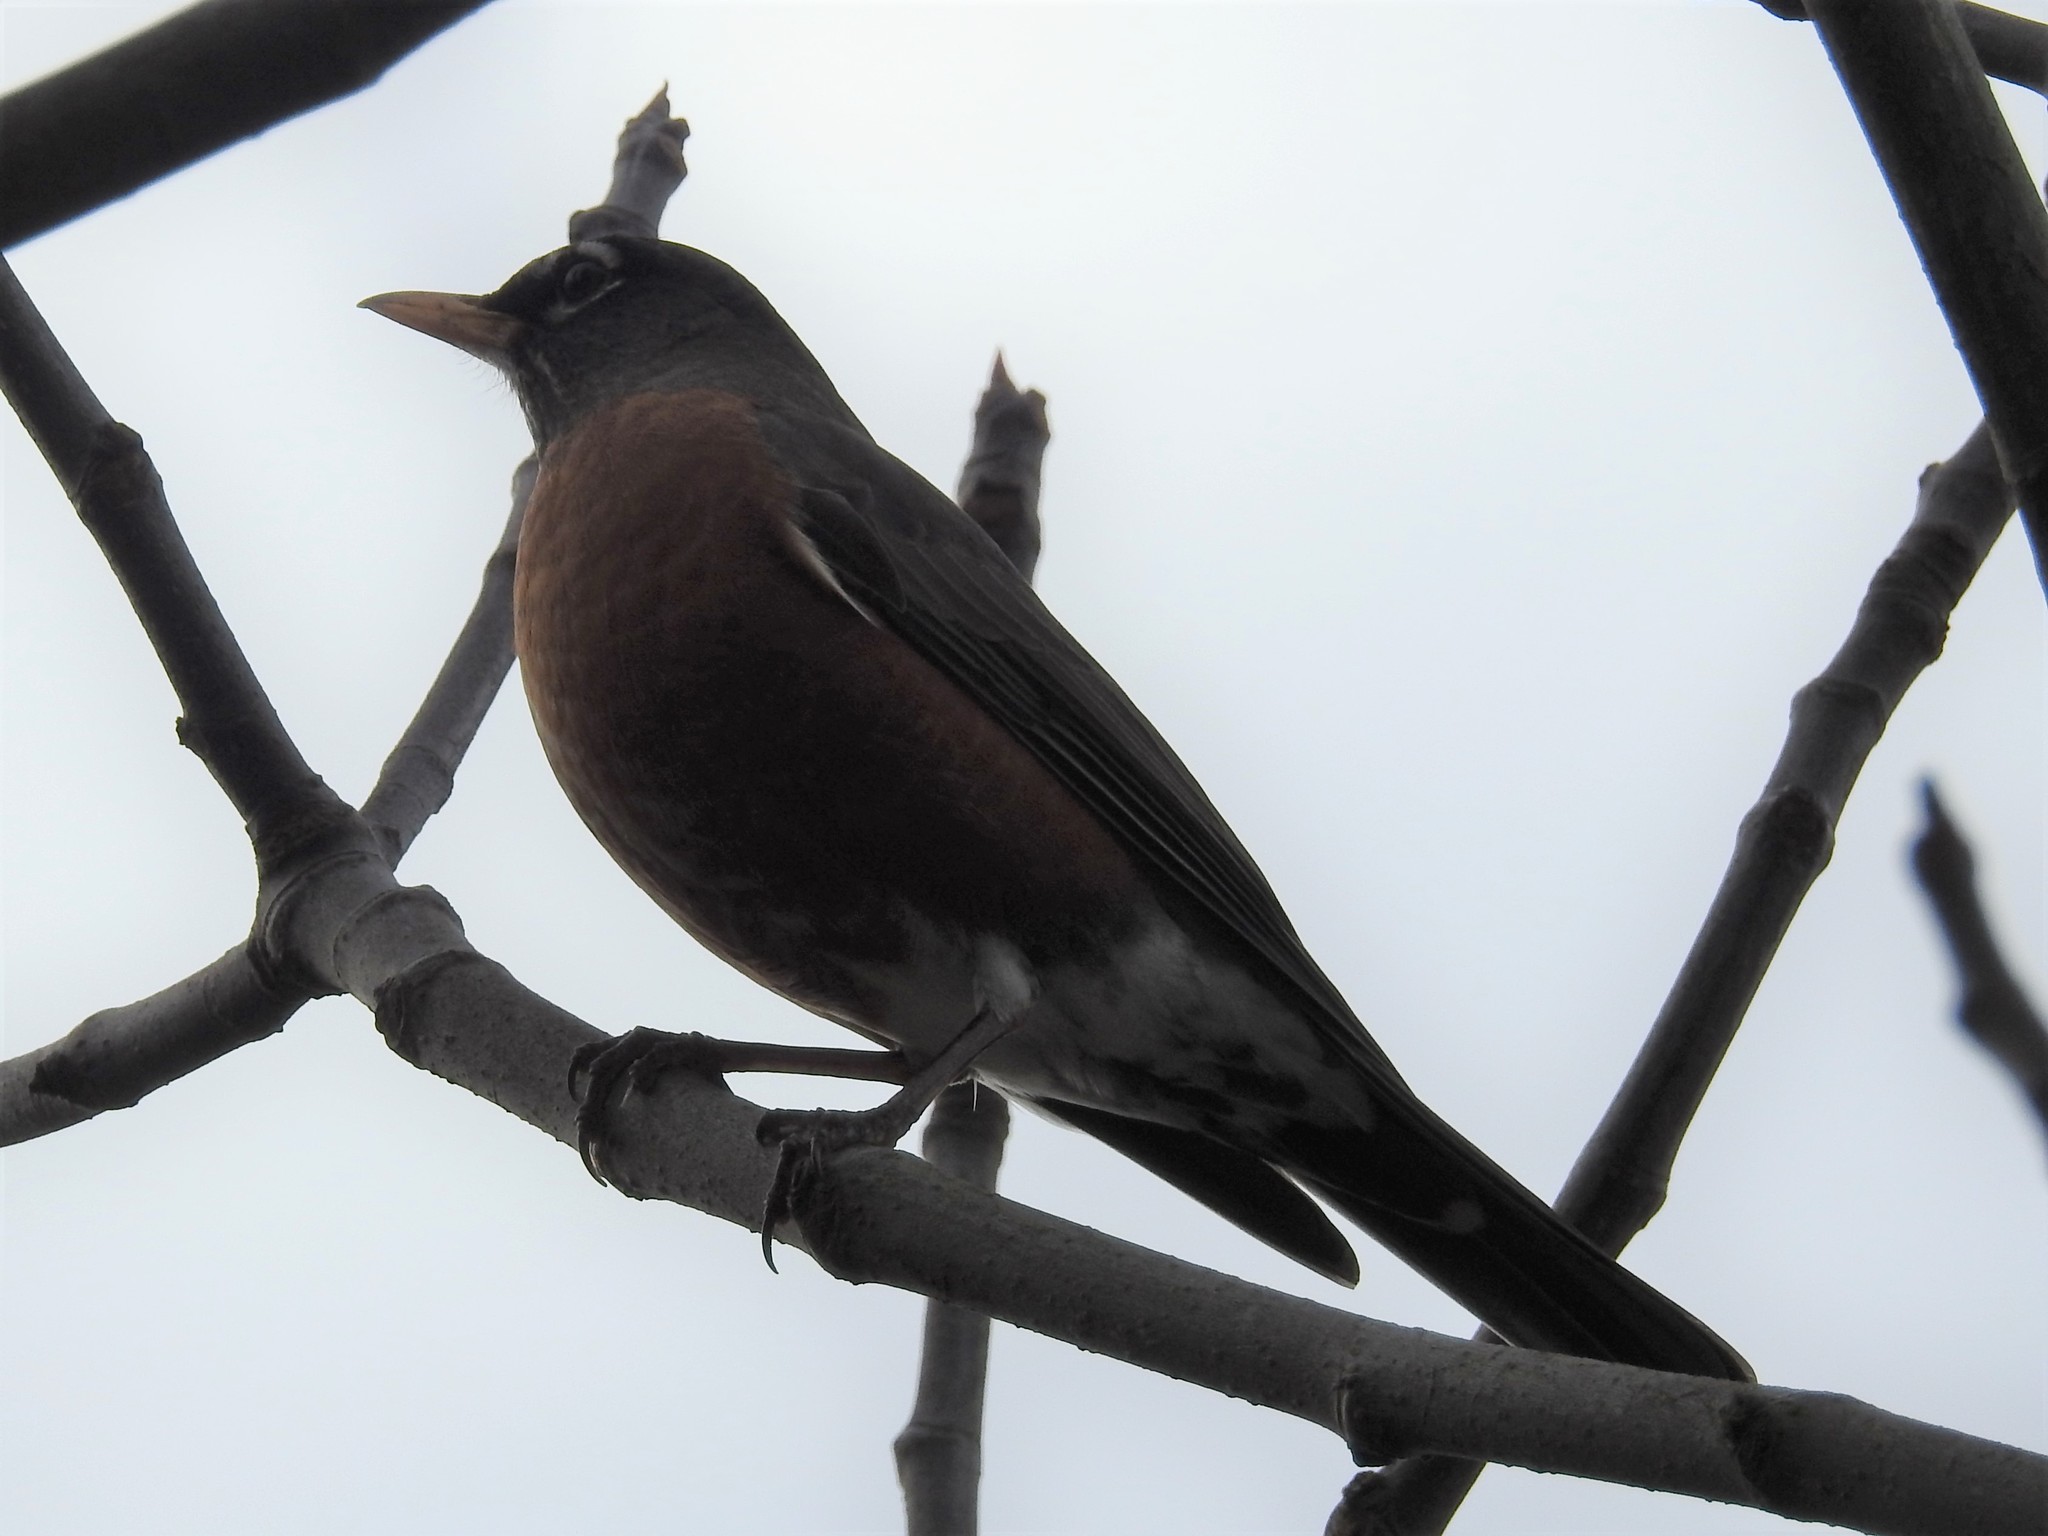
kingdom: Animalia
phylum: Chordata
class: Aves
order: Passeriformes
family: Turdidae
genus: Turdus
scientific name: Turdus migratorius
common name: American robin
